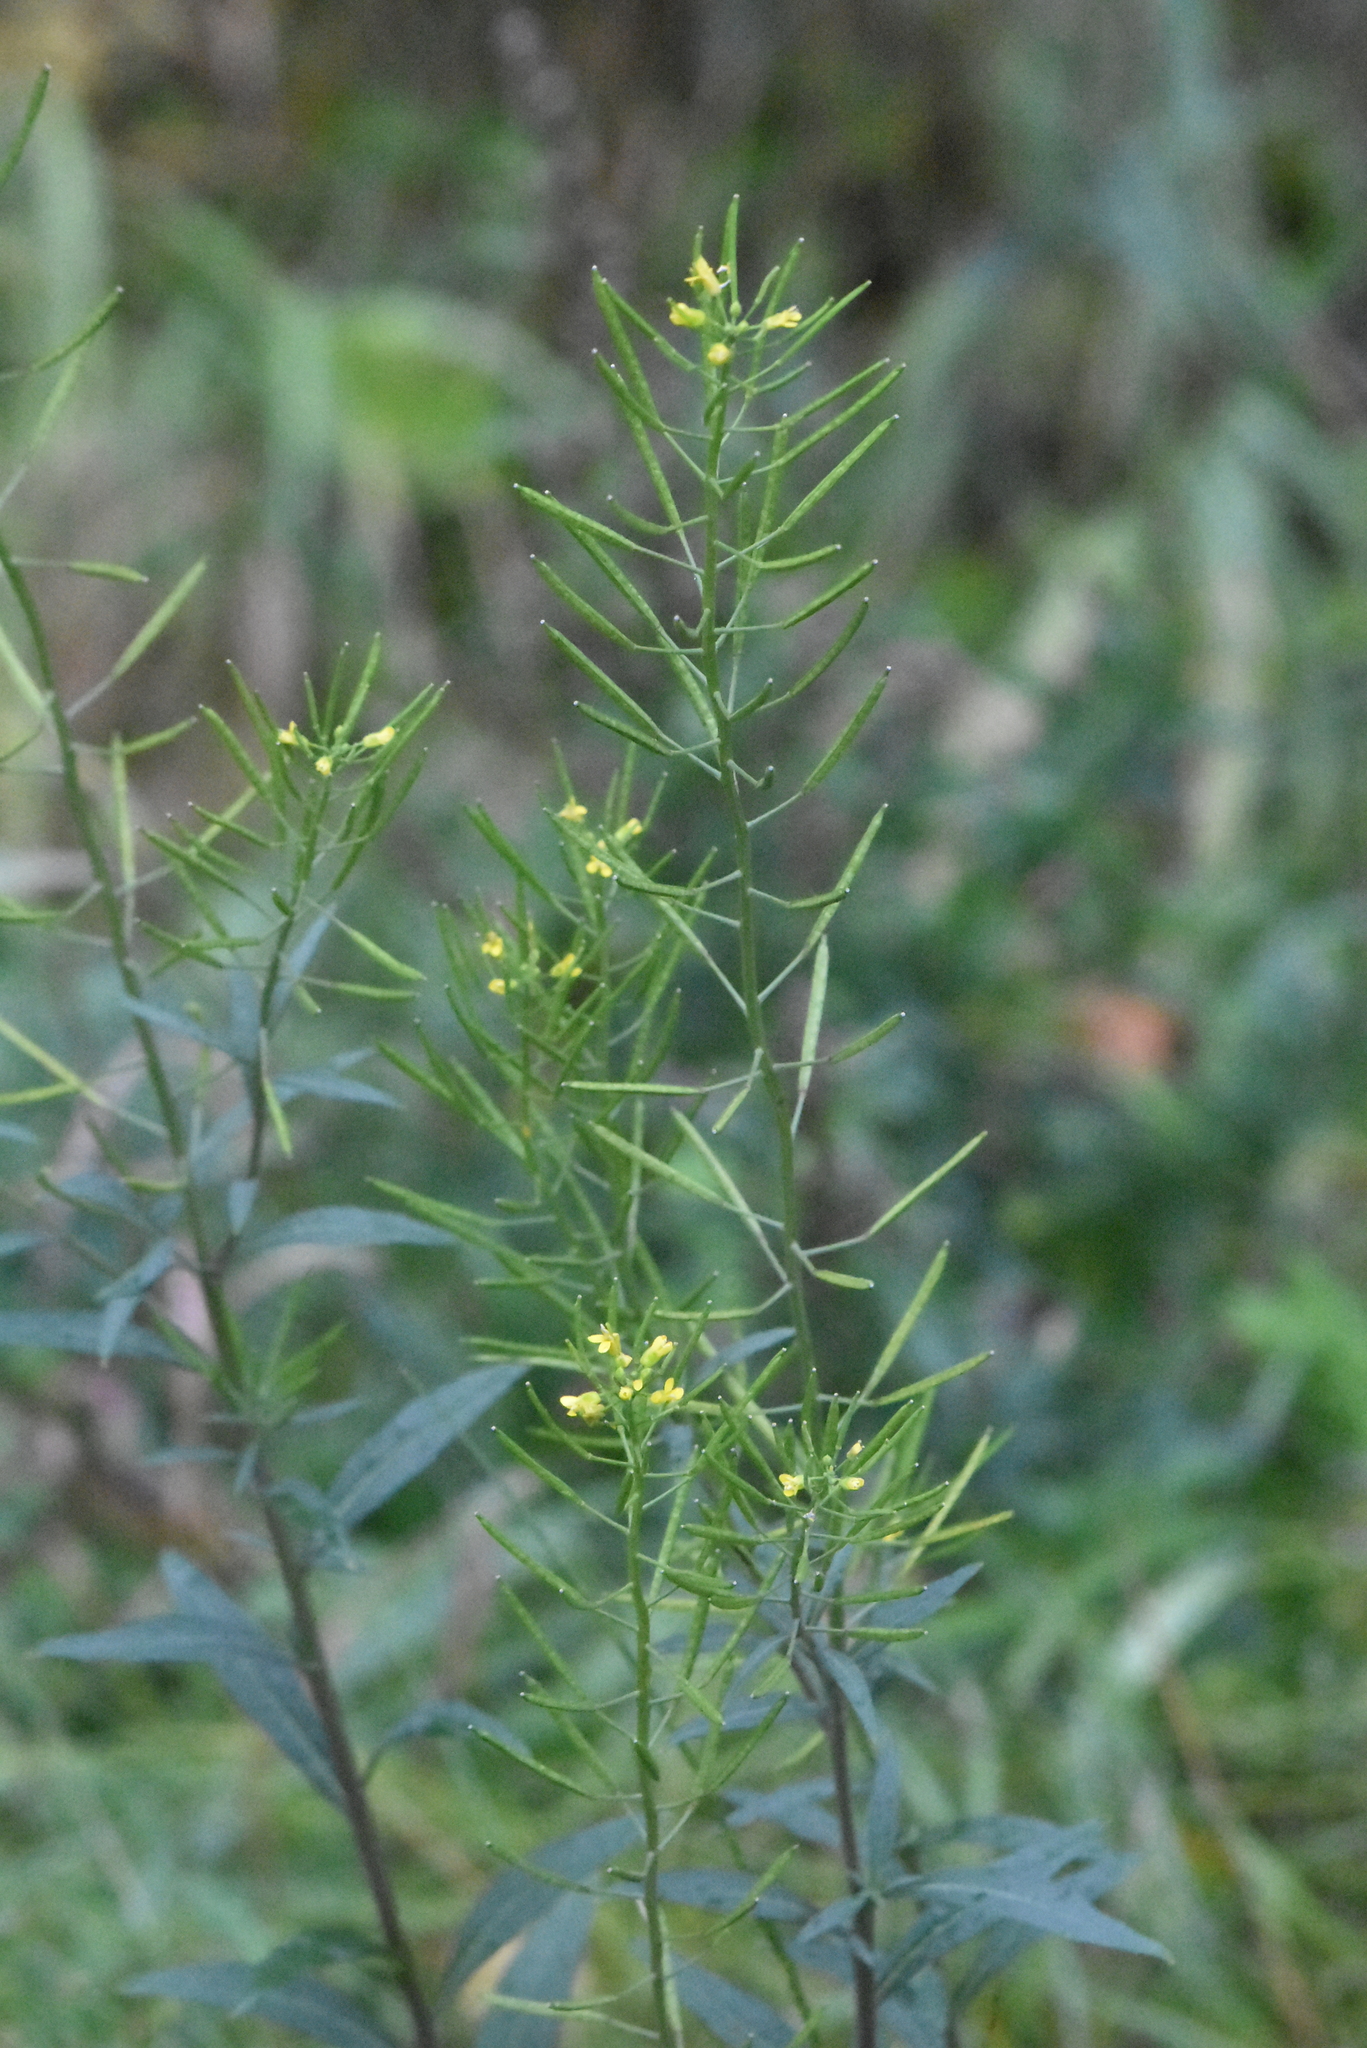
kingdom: Plantae
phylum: Tracheophyta
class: Magnoliopsida
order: Brassicales
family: Brassicaceae
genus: Erysimum
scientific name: Erysimum cheiranthoides
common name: Treacle mustard
